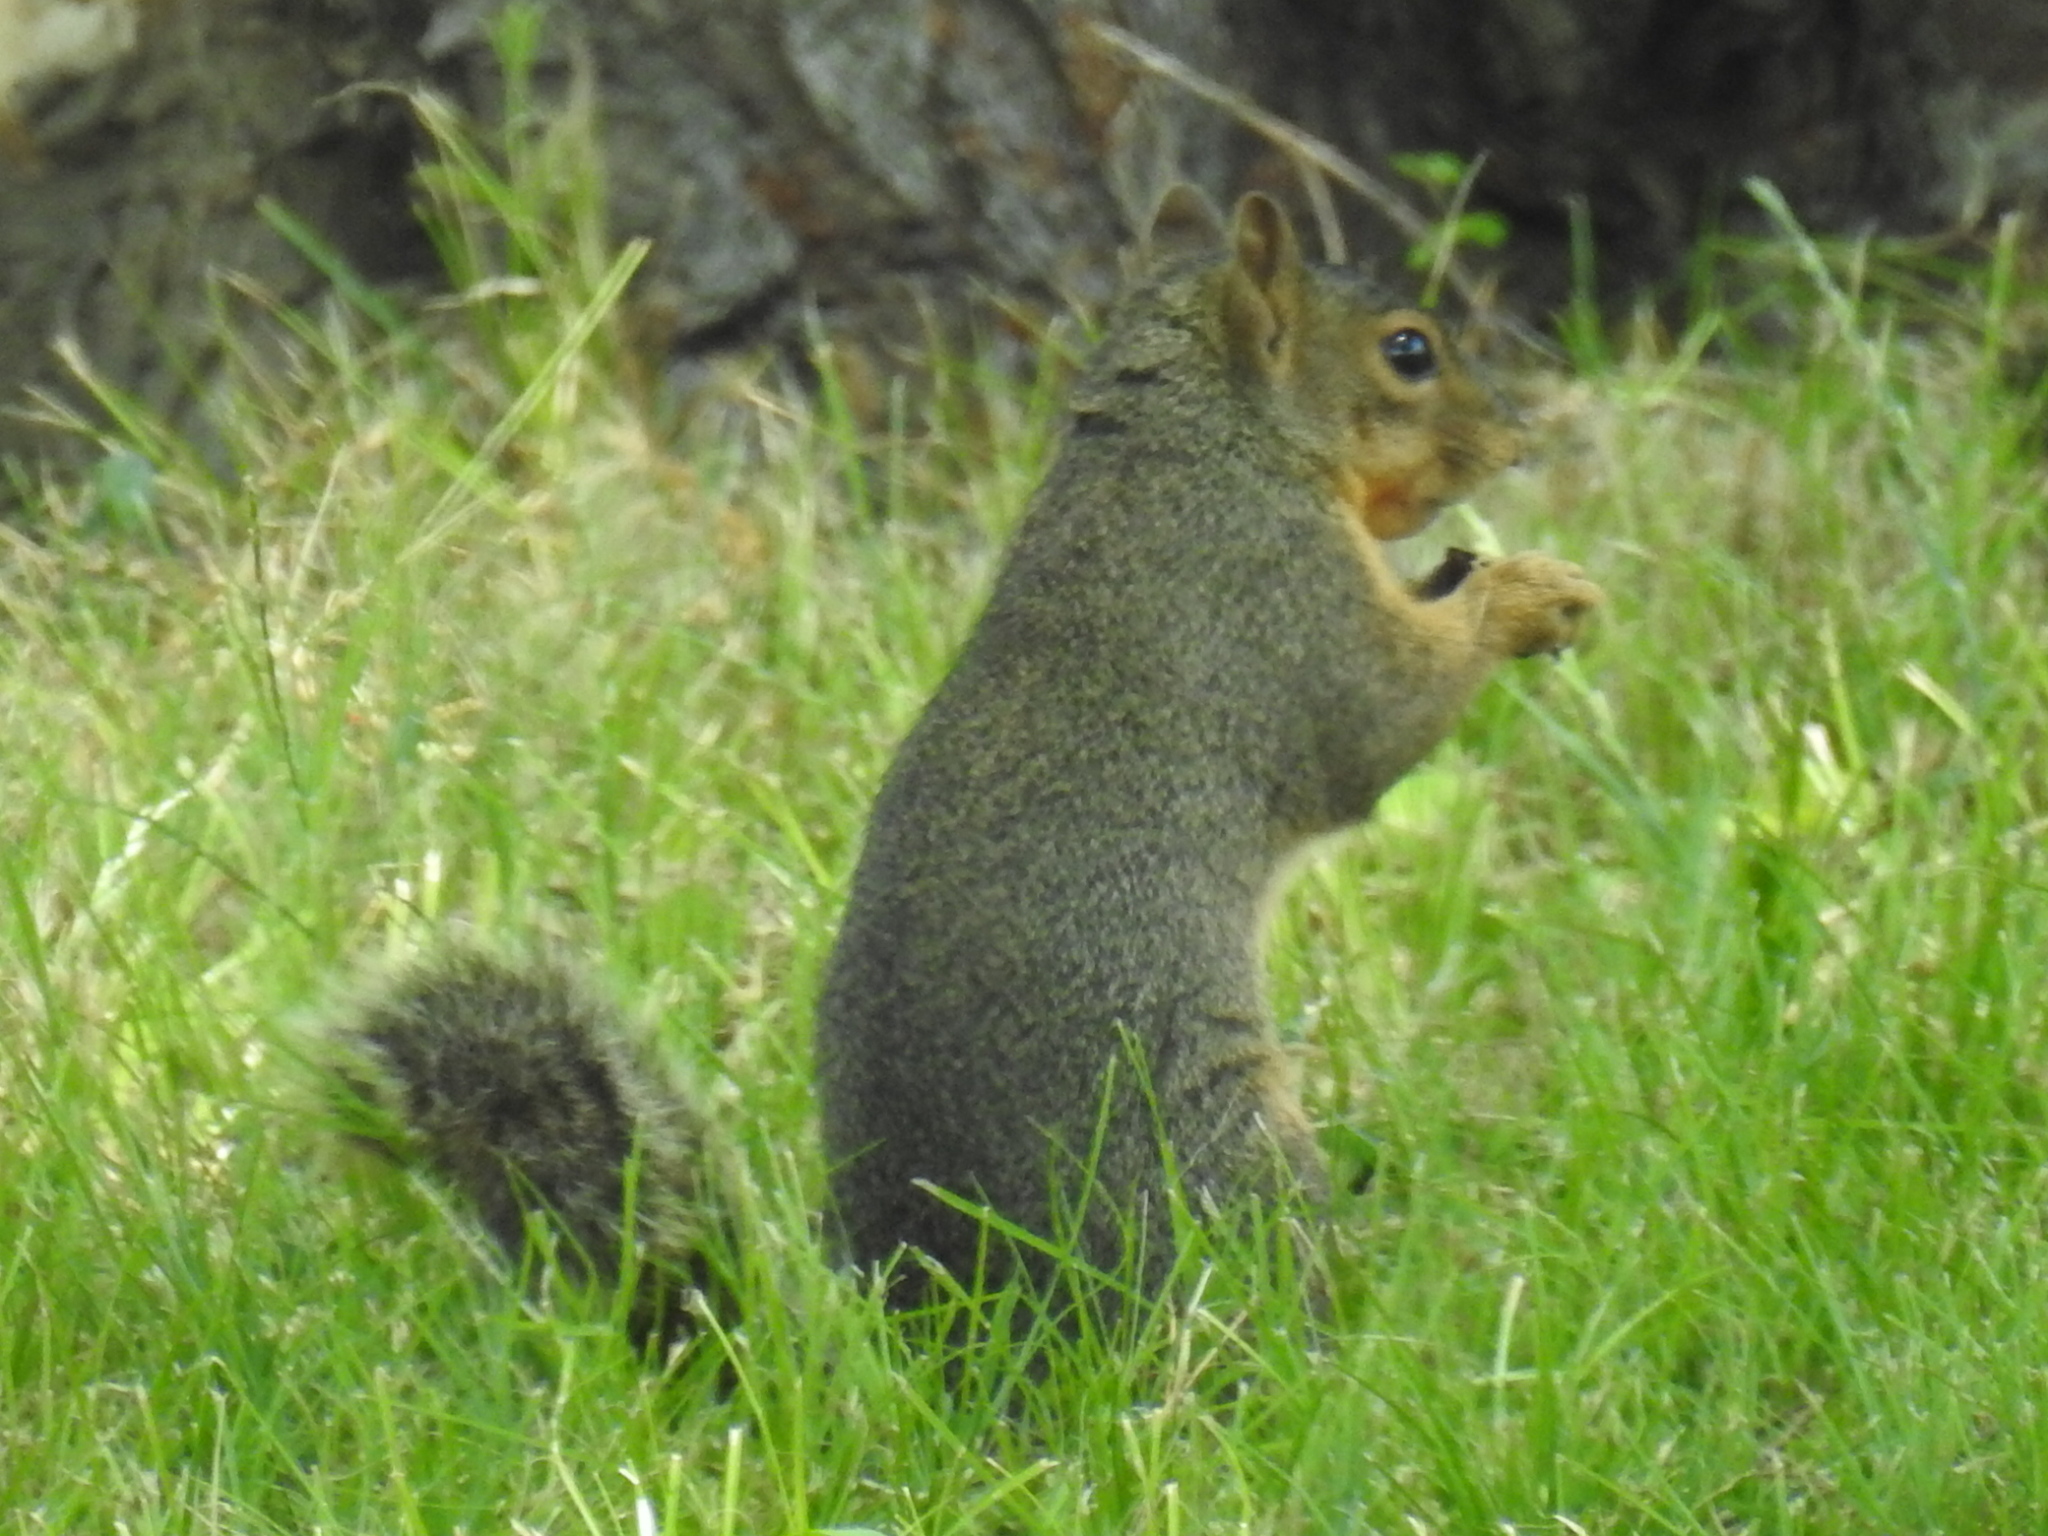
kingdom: Animalia
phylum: Chordata
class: Mammalia
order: Rodentia
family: Sciuridae
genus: Sciurus
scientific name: Sciurus niger
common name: Fox squirrel
